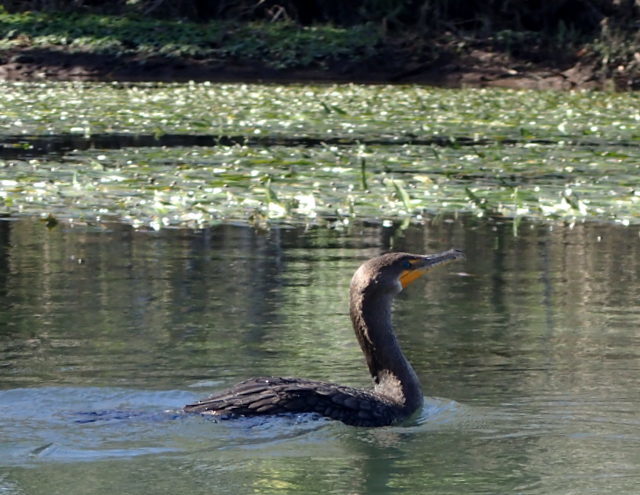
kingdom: Animalia
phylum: Chordata
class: Aves
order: Suliformes
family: Phalacrocoracidae
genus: Phalacrocorax
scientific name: Phalacrocorax auritus
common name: Double-crested cormorant
